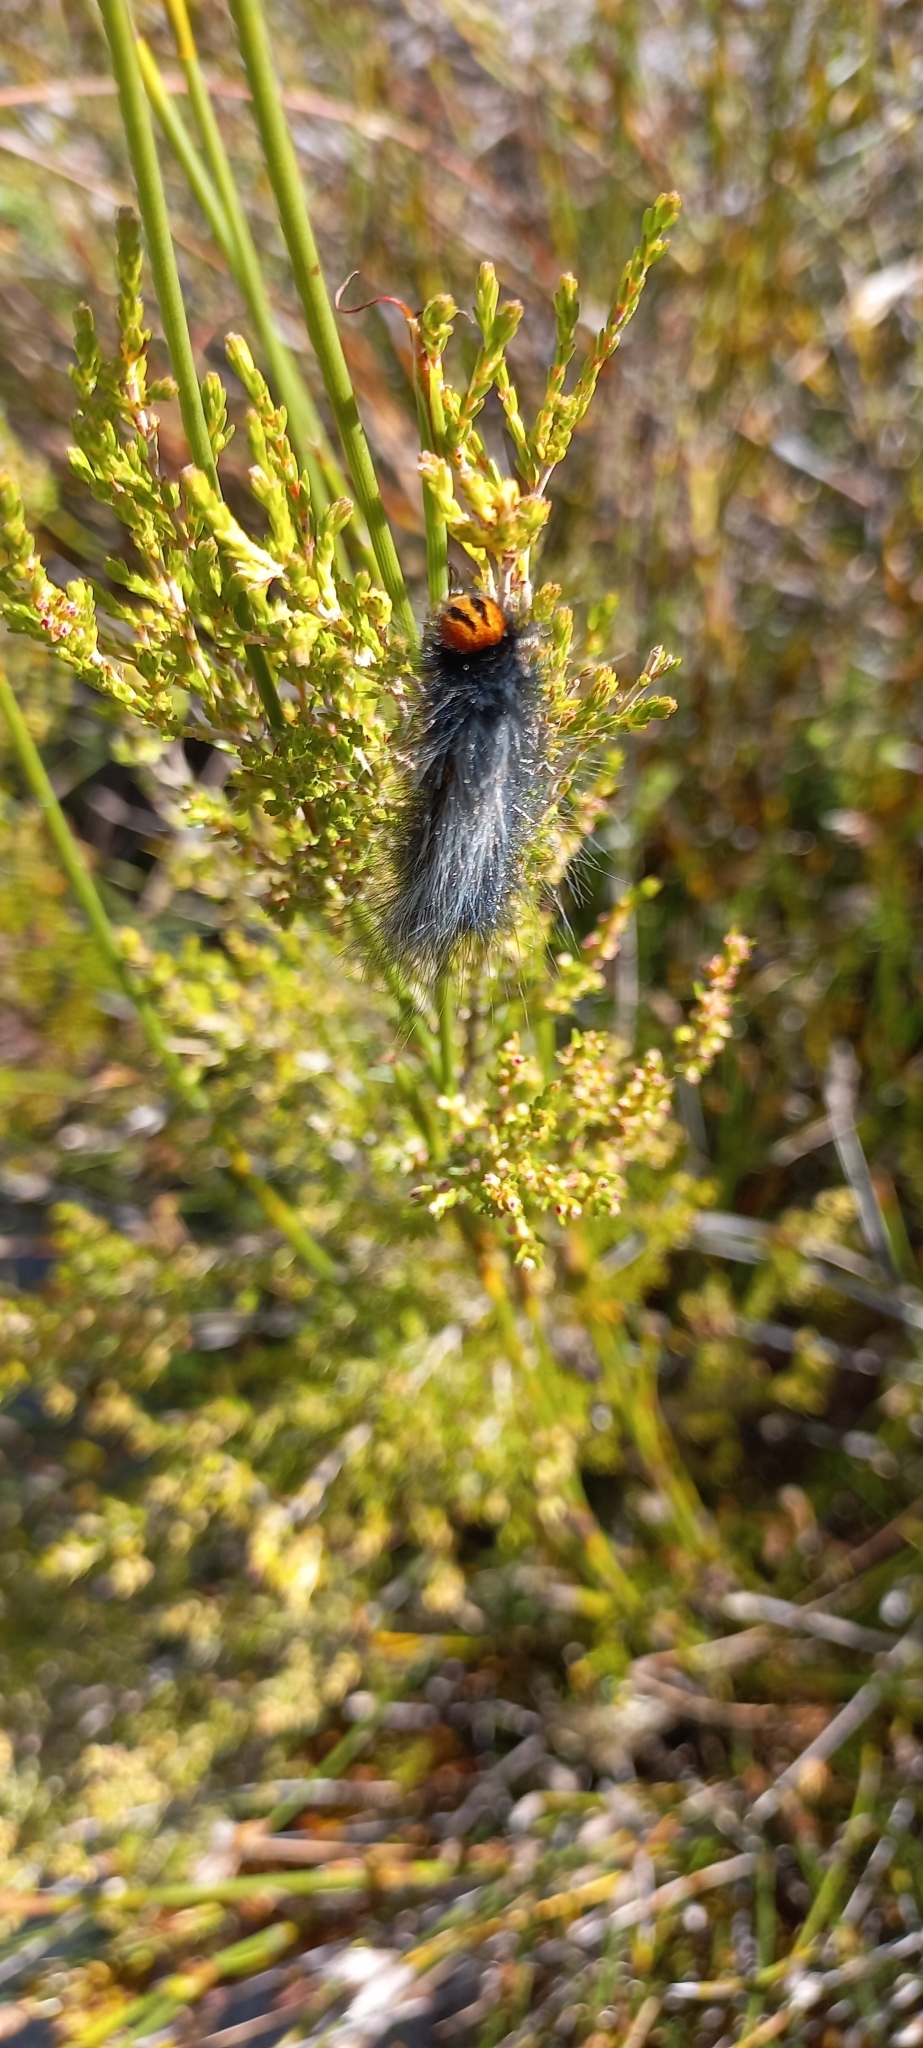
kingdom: Animalia
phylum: Arthropoda
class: Insecta
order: Lepidoptera
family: Lasiocampidae
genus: Mesocelis
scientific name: Mesocelis monticola
